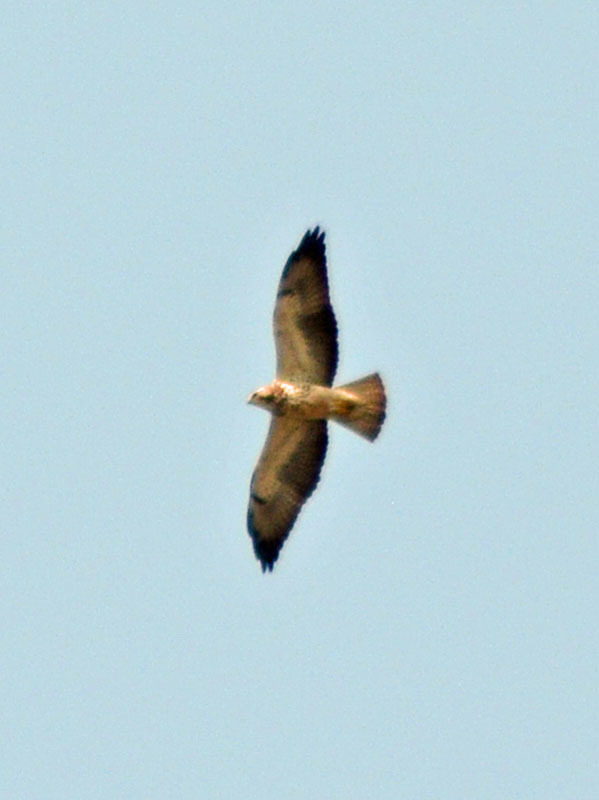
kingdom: Animalia
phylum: Chordata
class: Aves
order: Accipitriformes
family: Accipitridae
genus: Buteo
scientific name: Buteo swainsoni
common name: Swainson's hawk
